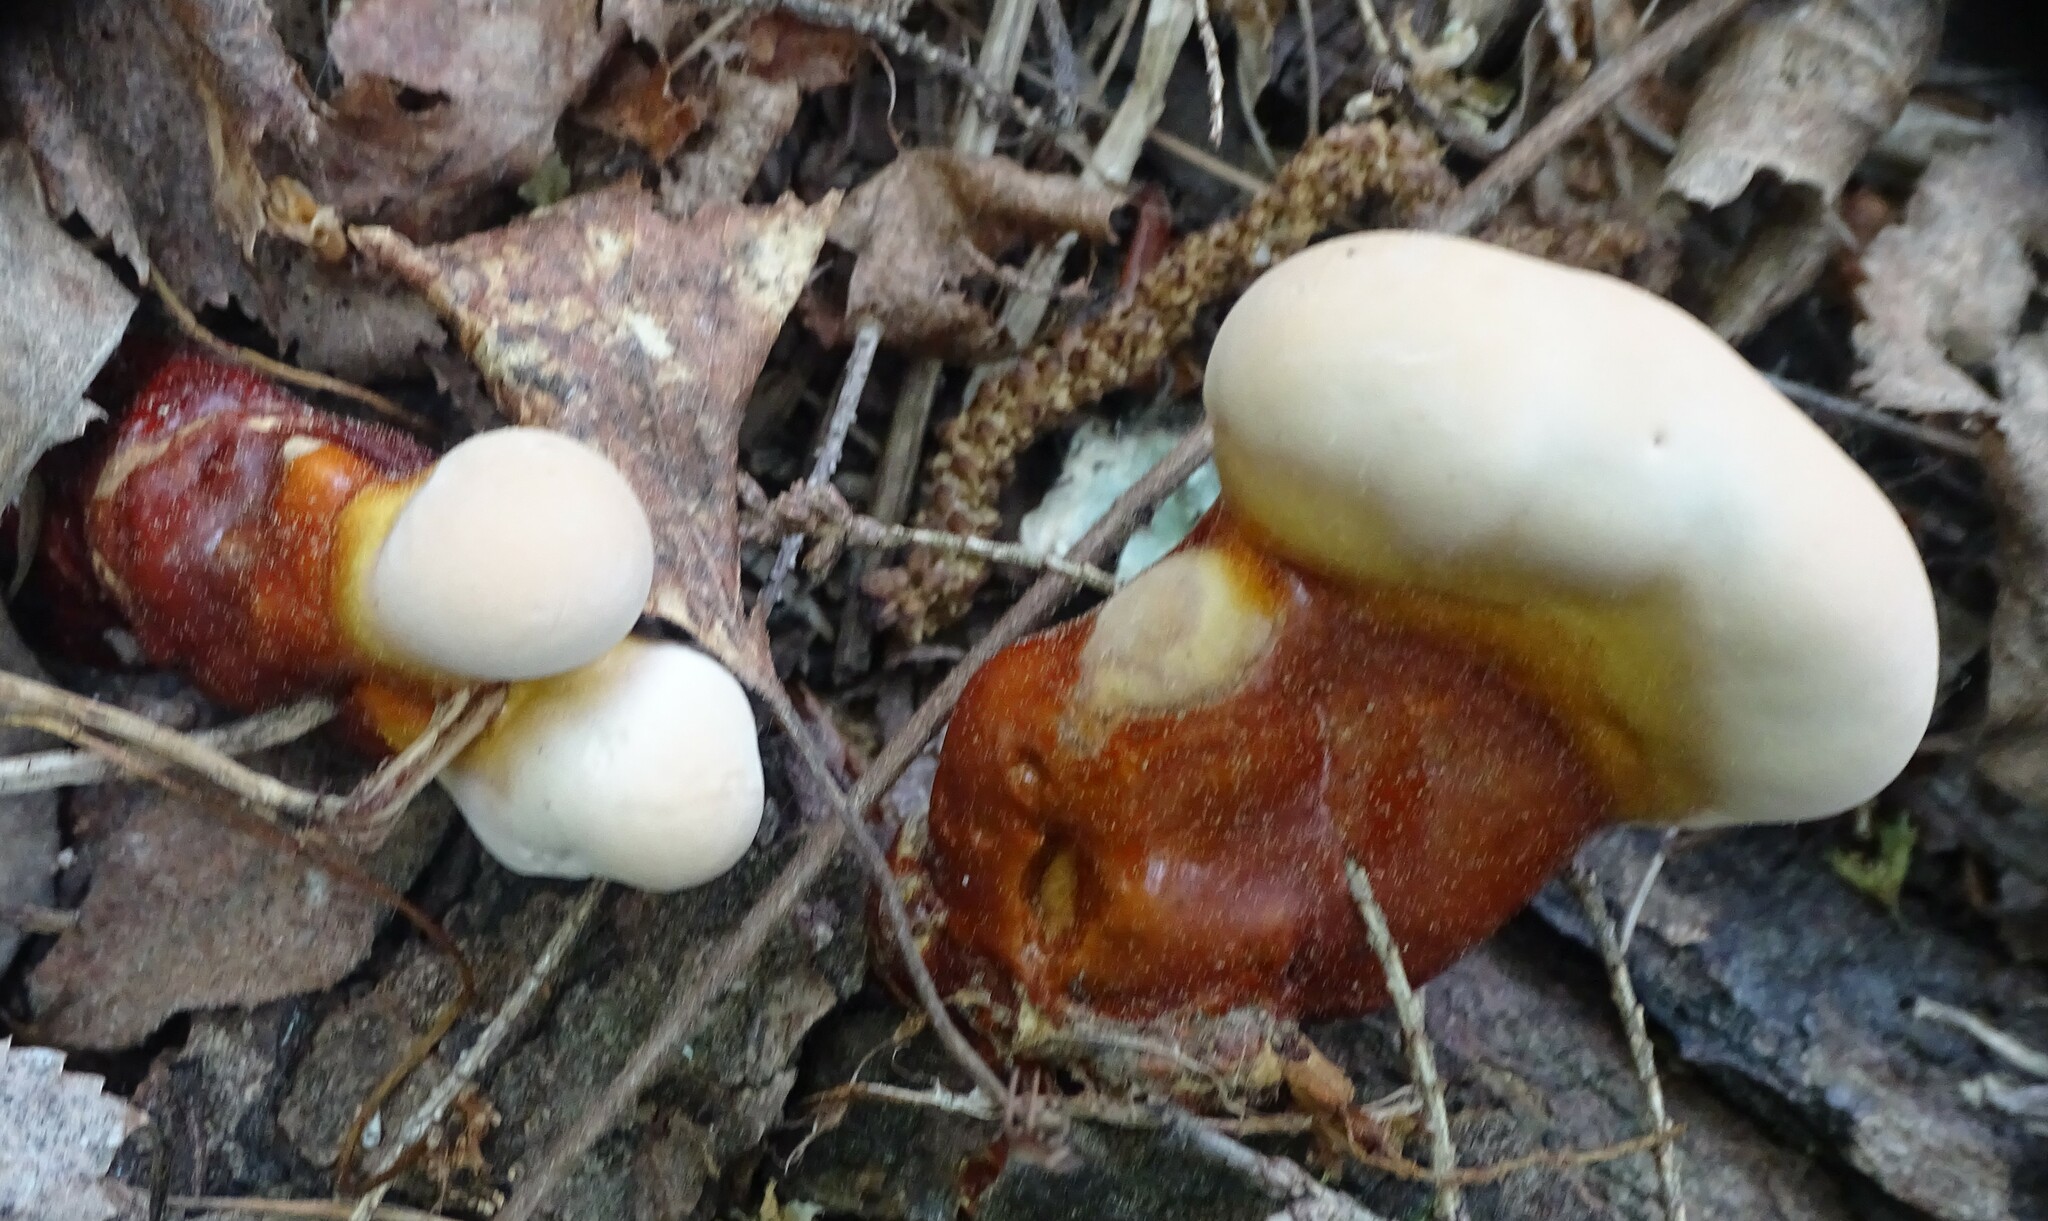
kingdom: Fungi
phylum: Basidiomycota
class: Agaricomycetes
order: Polyporales
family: Polyporaceae
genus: Ganoderma
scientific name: Ganoderma tsugae
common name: Hemlock varnish shelf
